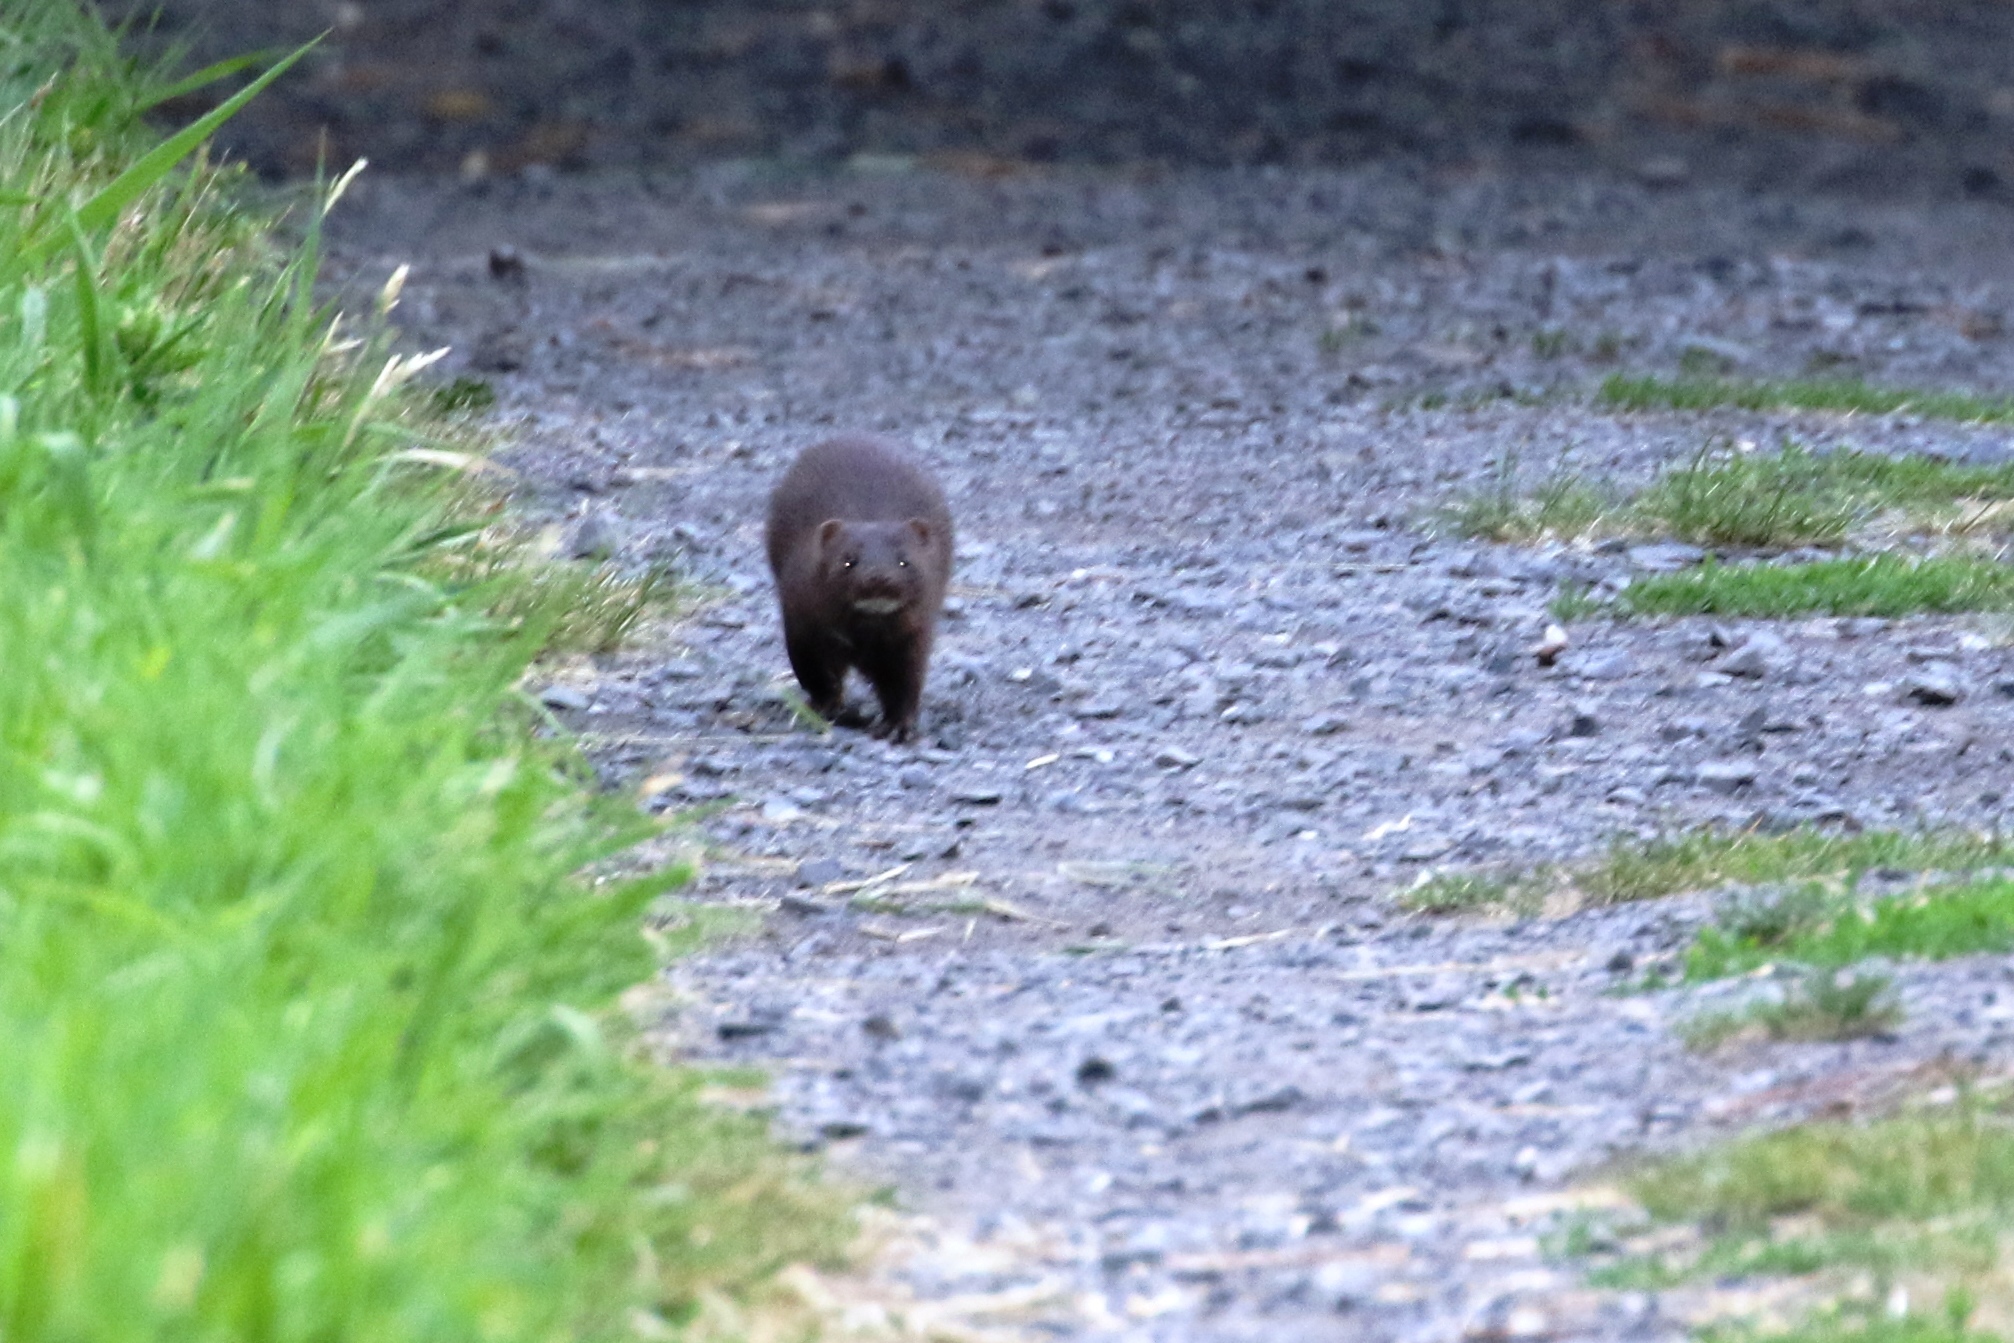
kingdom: Animalia
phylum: Chordata
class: Mammalia
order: Carnivora
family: Mustelidae
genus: Mustela
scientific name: Mustela
